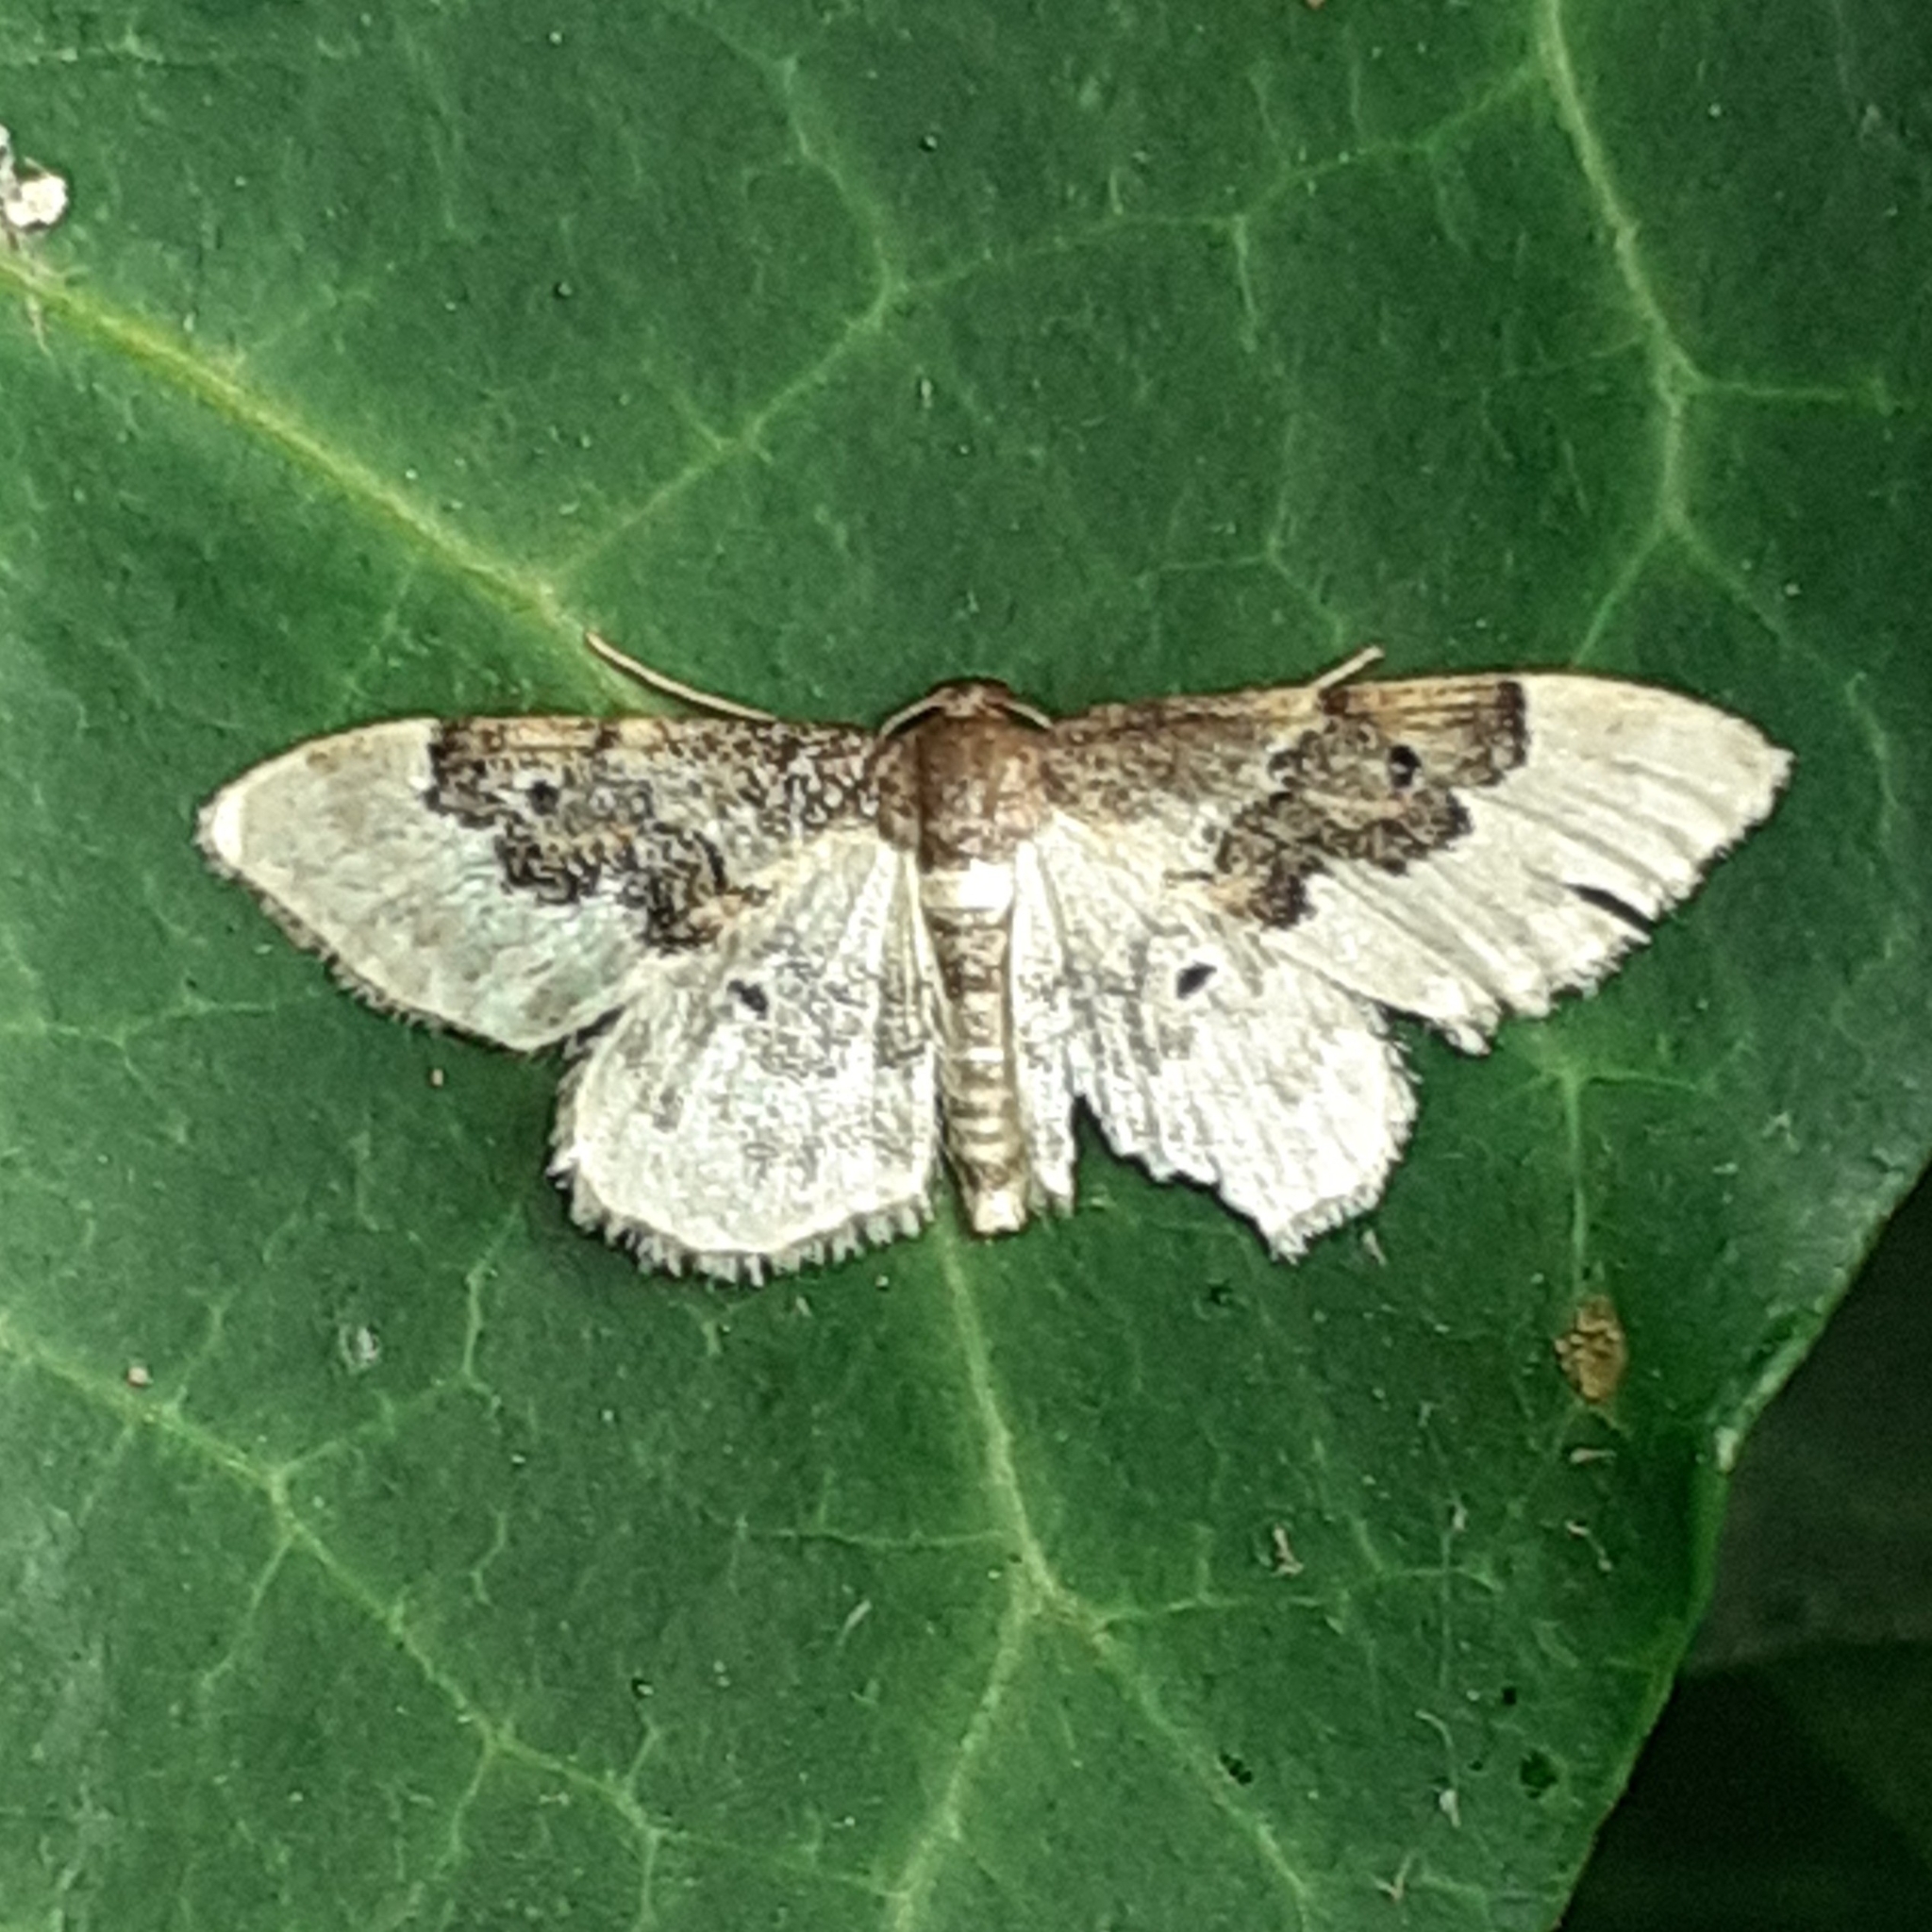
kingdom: Animalia
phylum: Arthropoda
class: Insecta
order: Lepidoptera
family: Geometridae
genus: Idaea
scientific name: Idaea rusticata
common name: Least carpet
